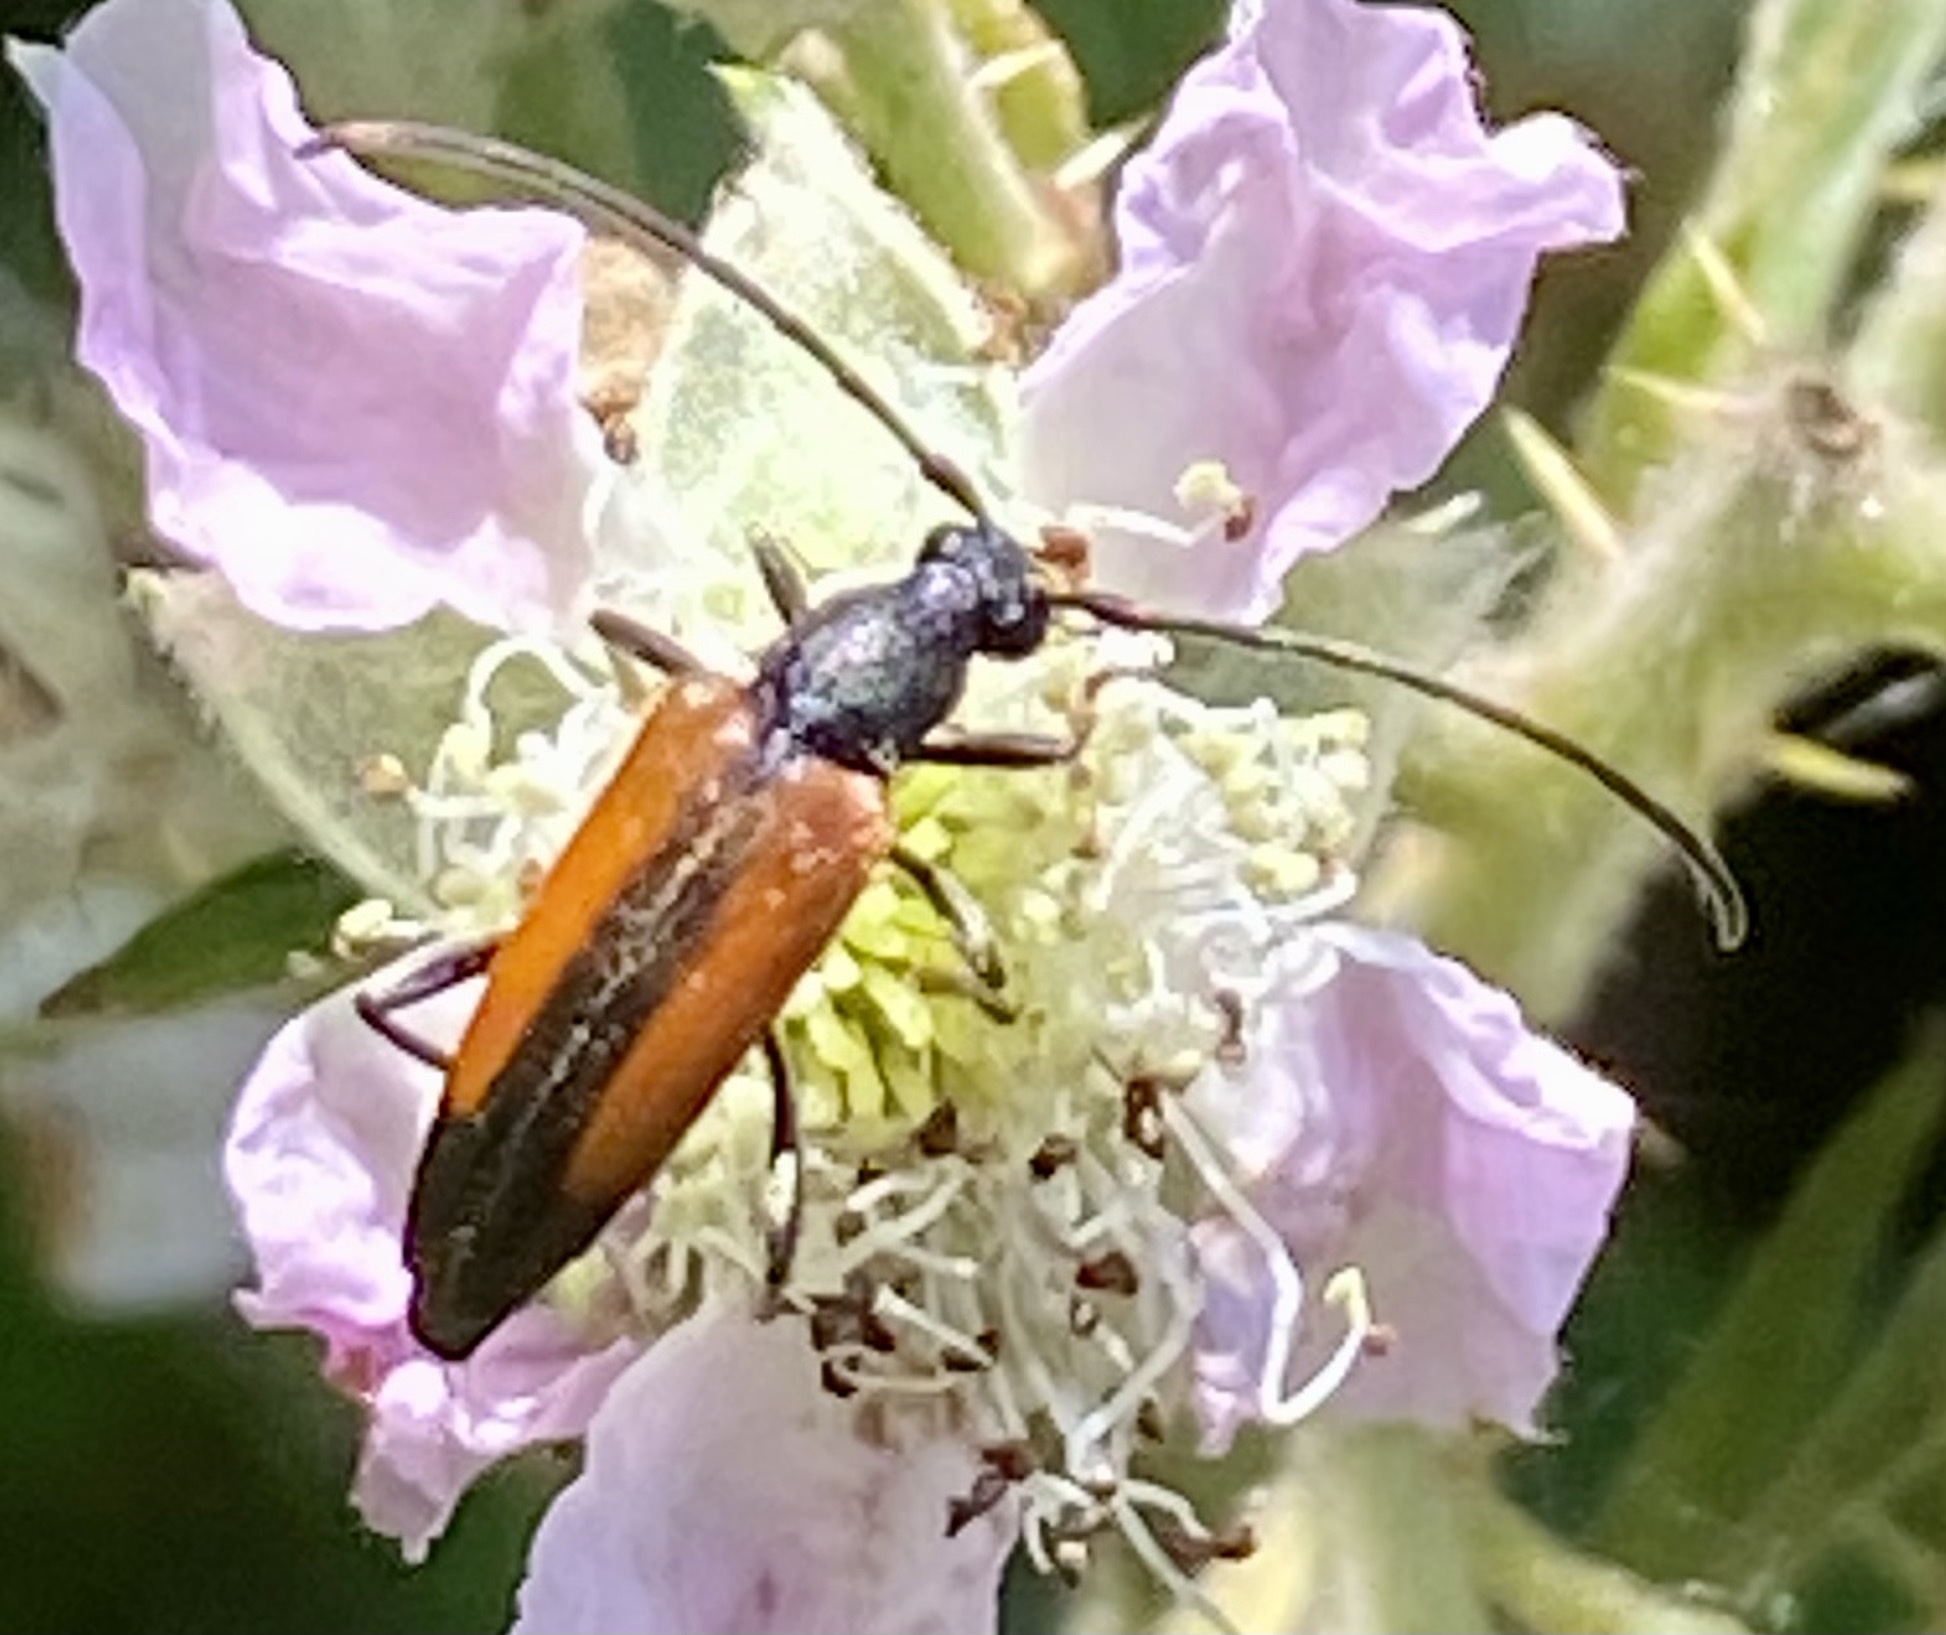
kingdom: Animalia
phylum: Arthropoda
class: Insecta
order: Coleoptera
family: Cerambycidae
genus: Stenurella
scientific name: Stenurella melanura
